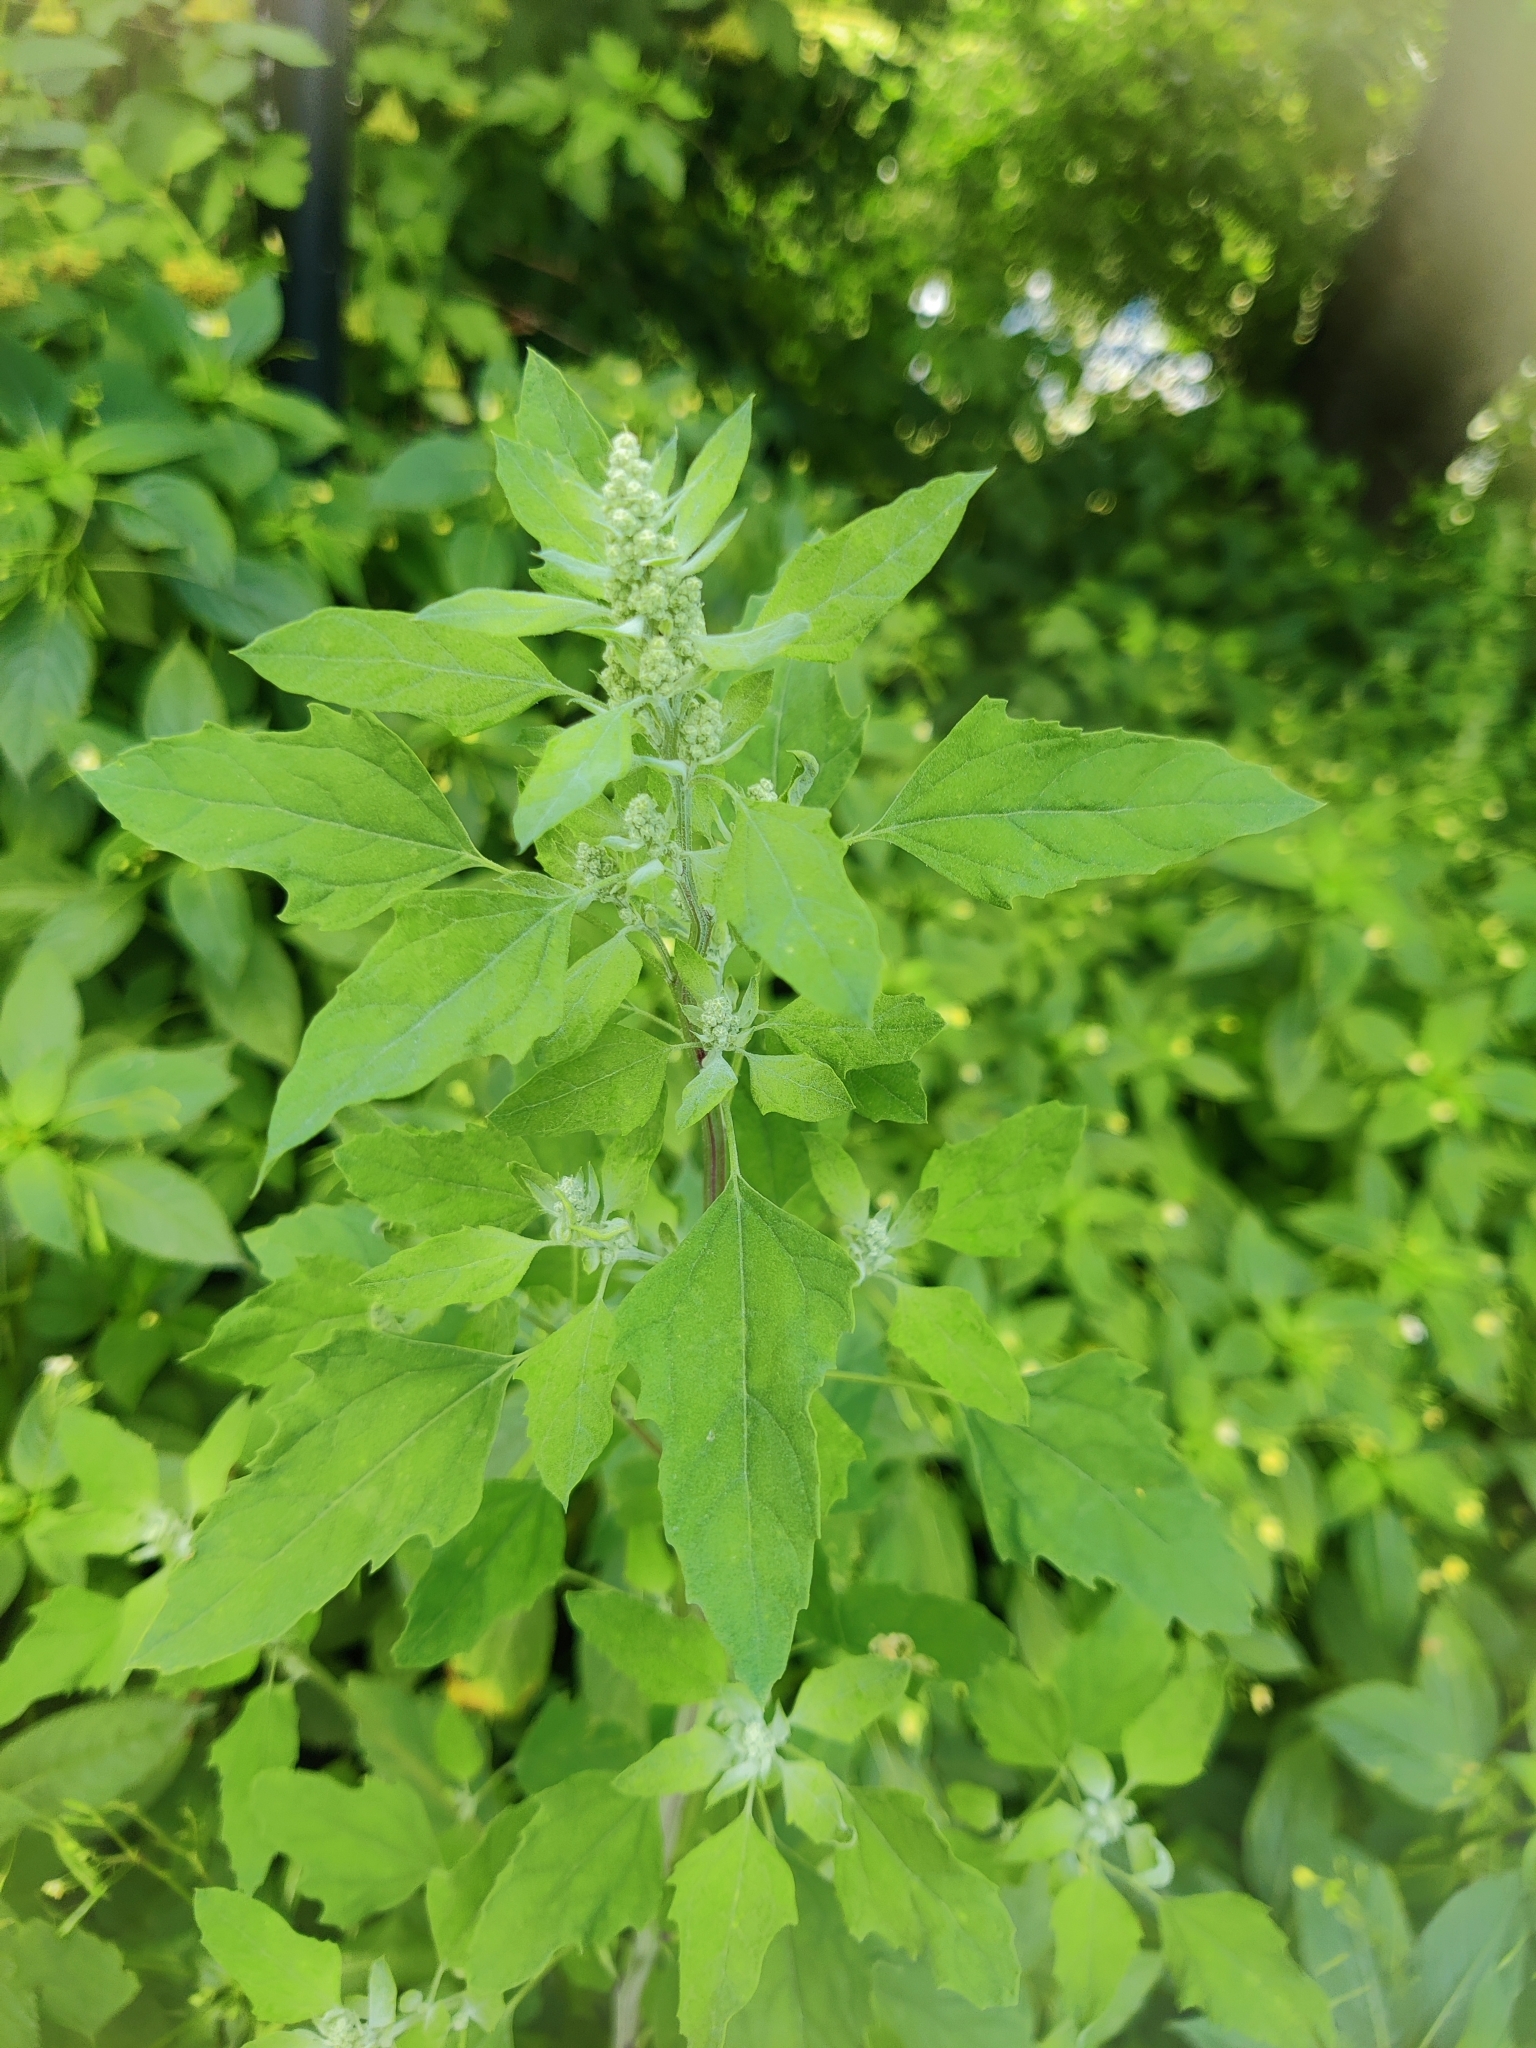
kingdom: Plantae
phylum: Tracheophyta
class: Magnoliopsida
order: Caryophyllales
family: Amaranthaceae
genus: Chenopodium
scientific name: Chenopodium album
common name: Fat-hen
